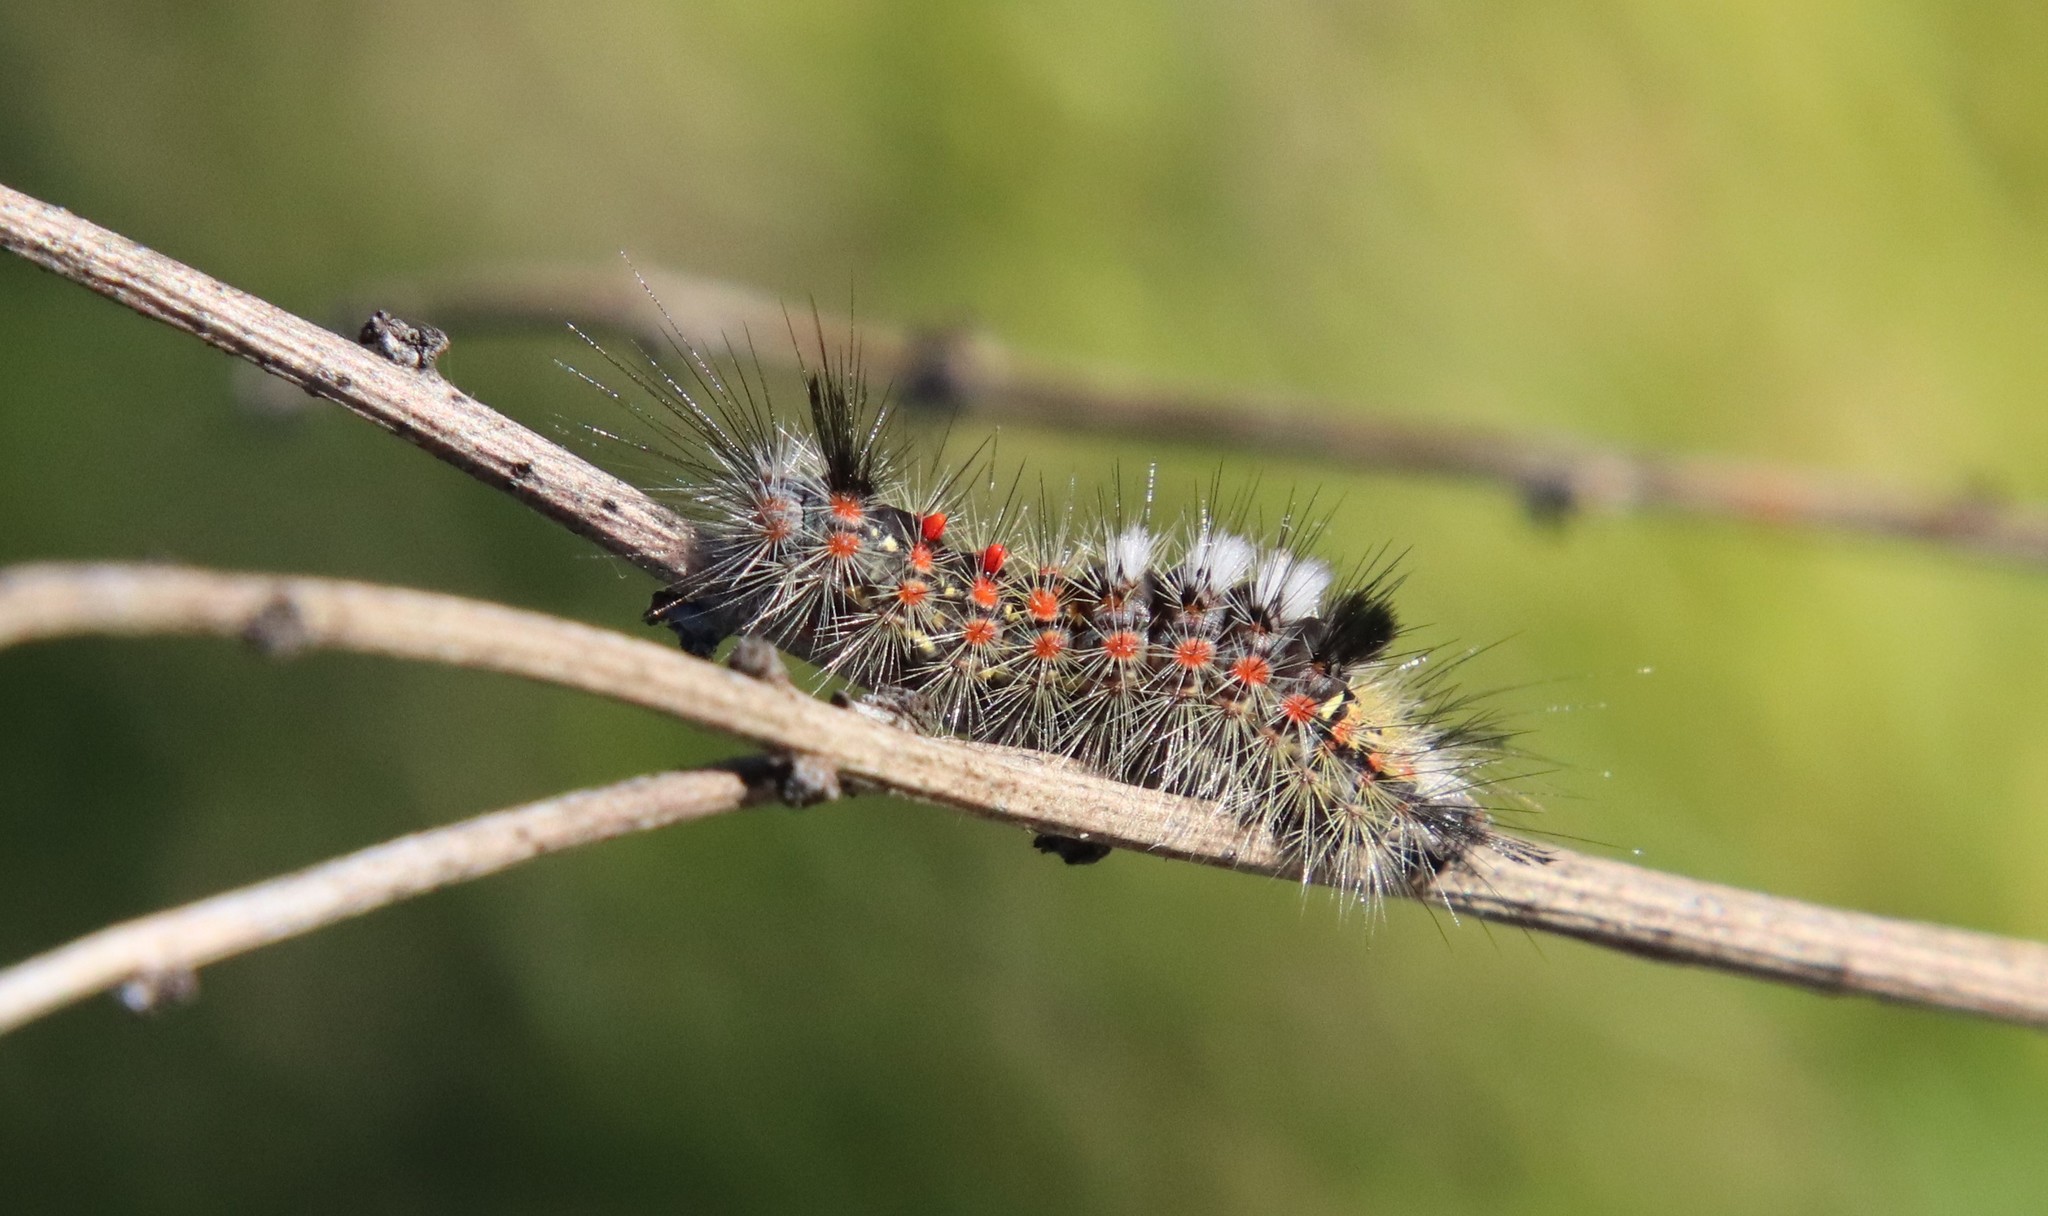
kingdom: Animalia
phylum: Arthropoda
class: Insecta
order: Lepidoptera
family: Erebidae
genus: Orgyia
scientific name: Orgyia vetusta
